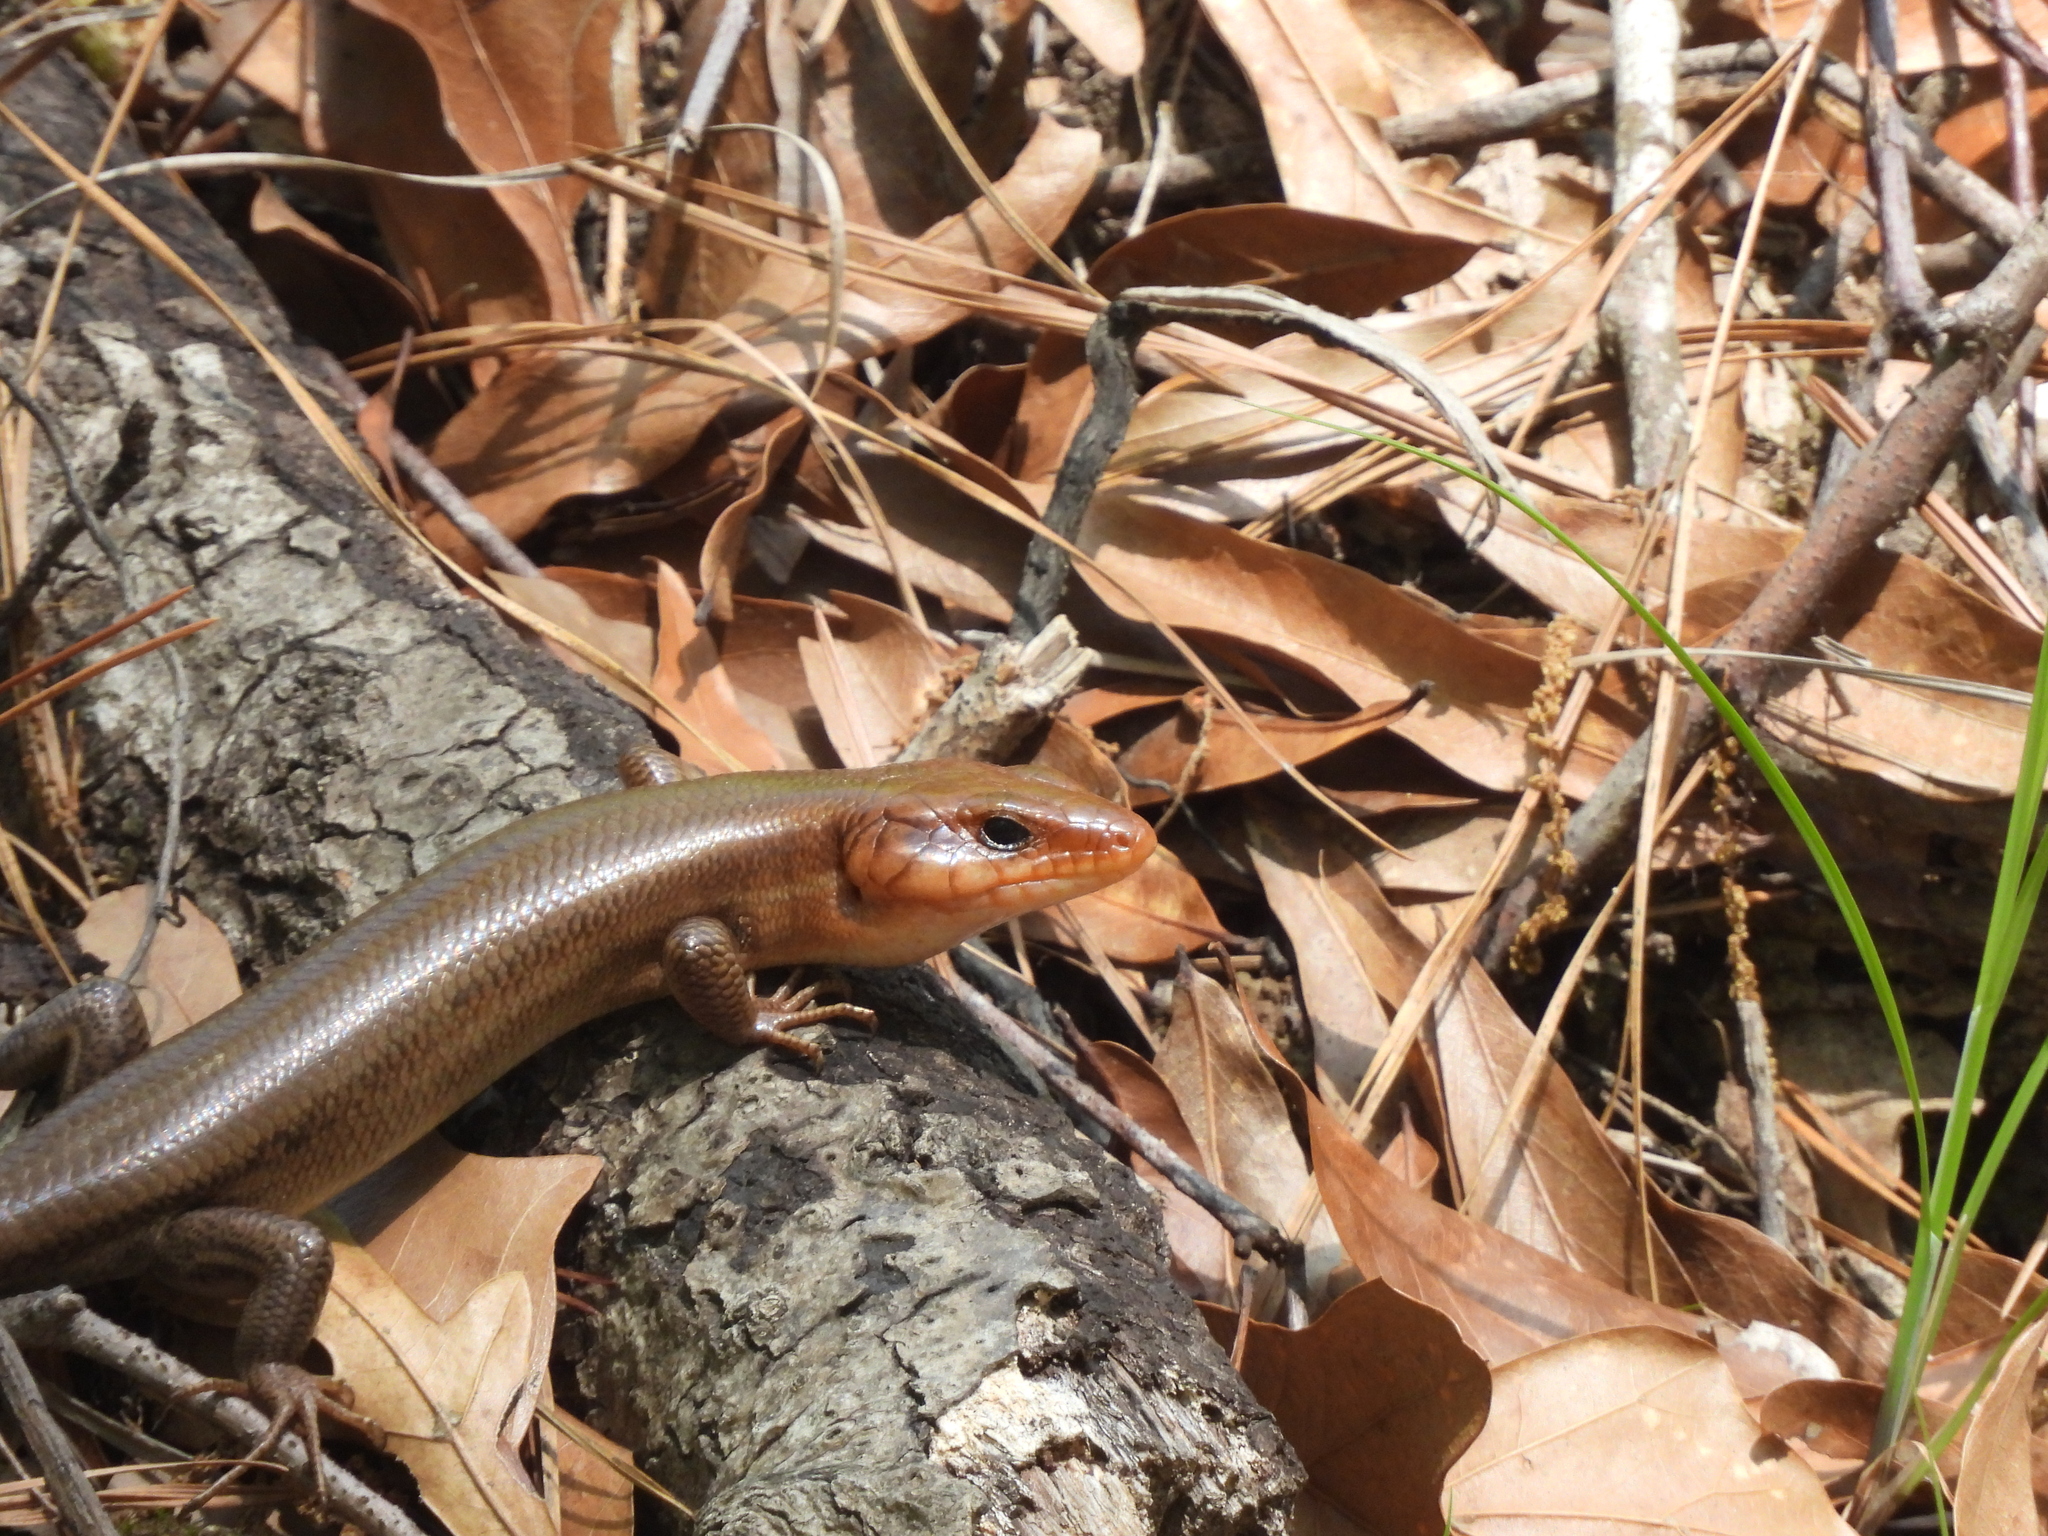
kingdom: Animalia
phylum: Chordata
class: Squamata
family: Scincidae
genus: Plestiodon
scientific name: Plestiodon laticeps
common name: Broadhead skink
